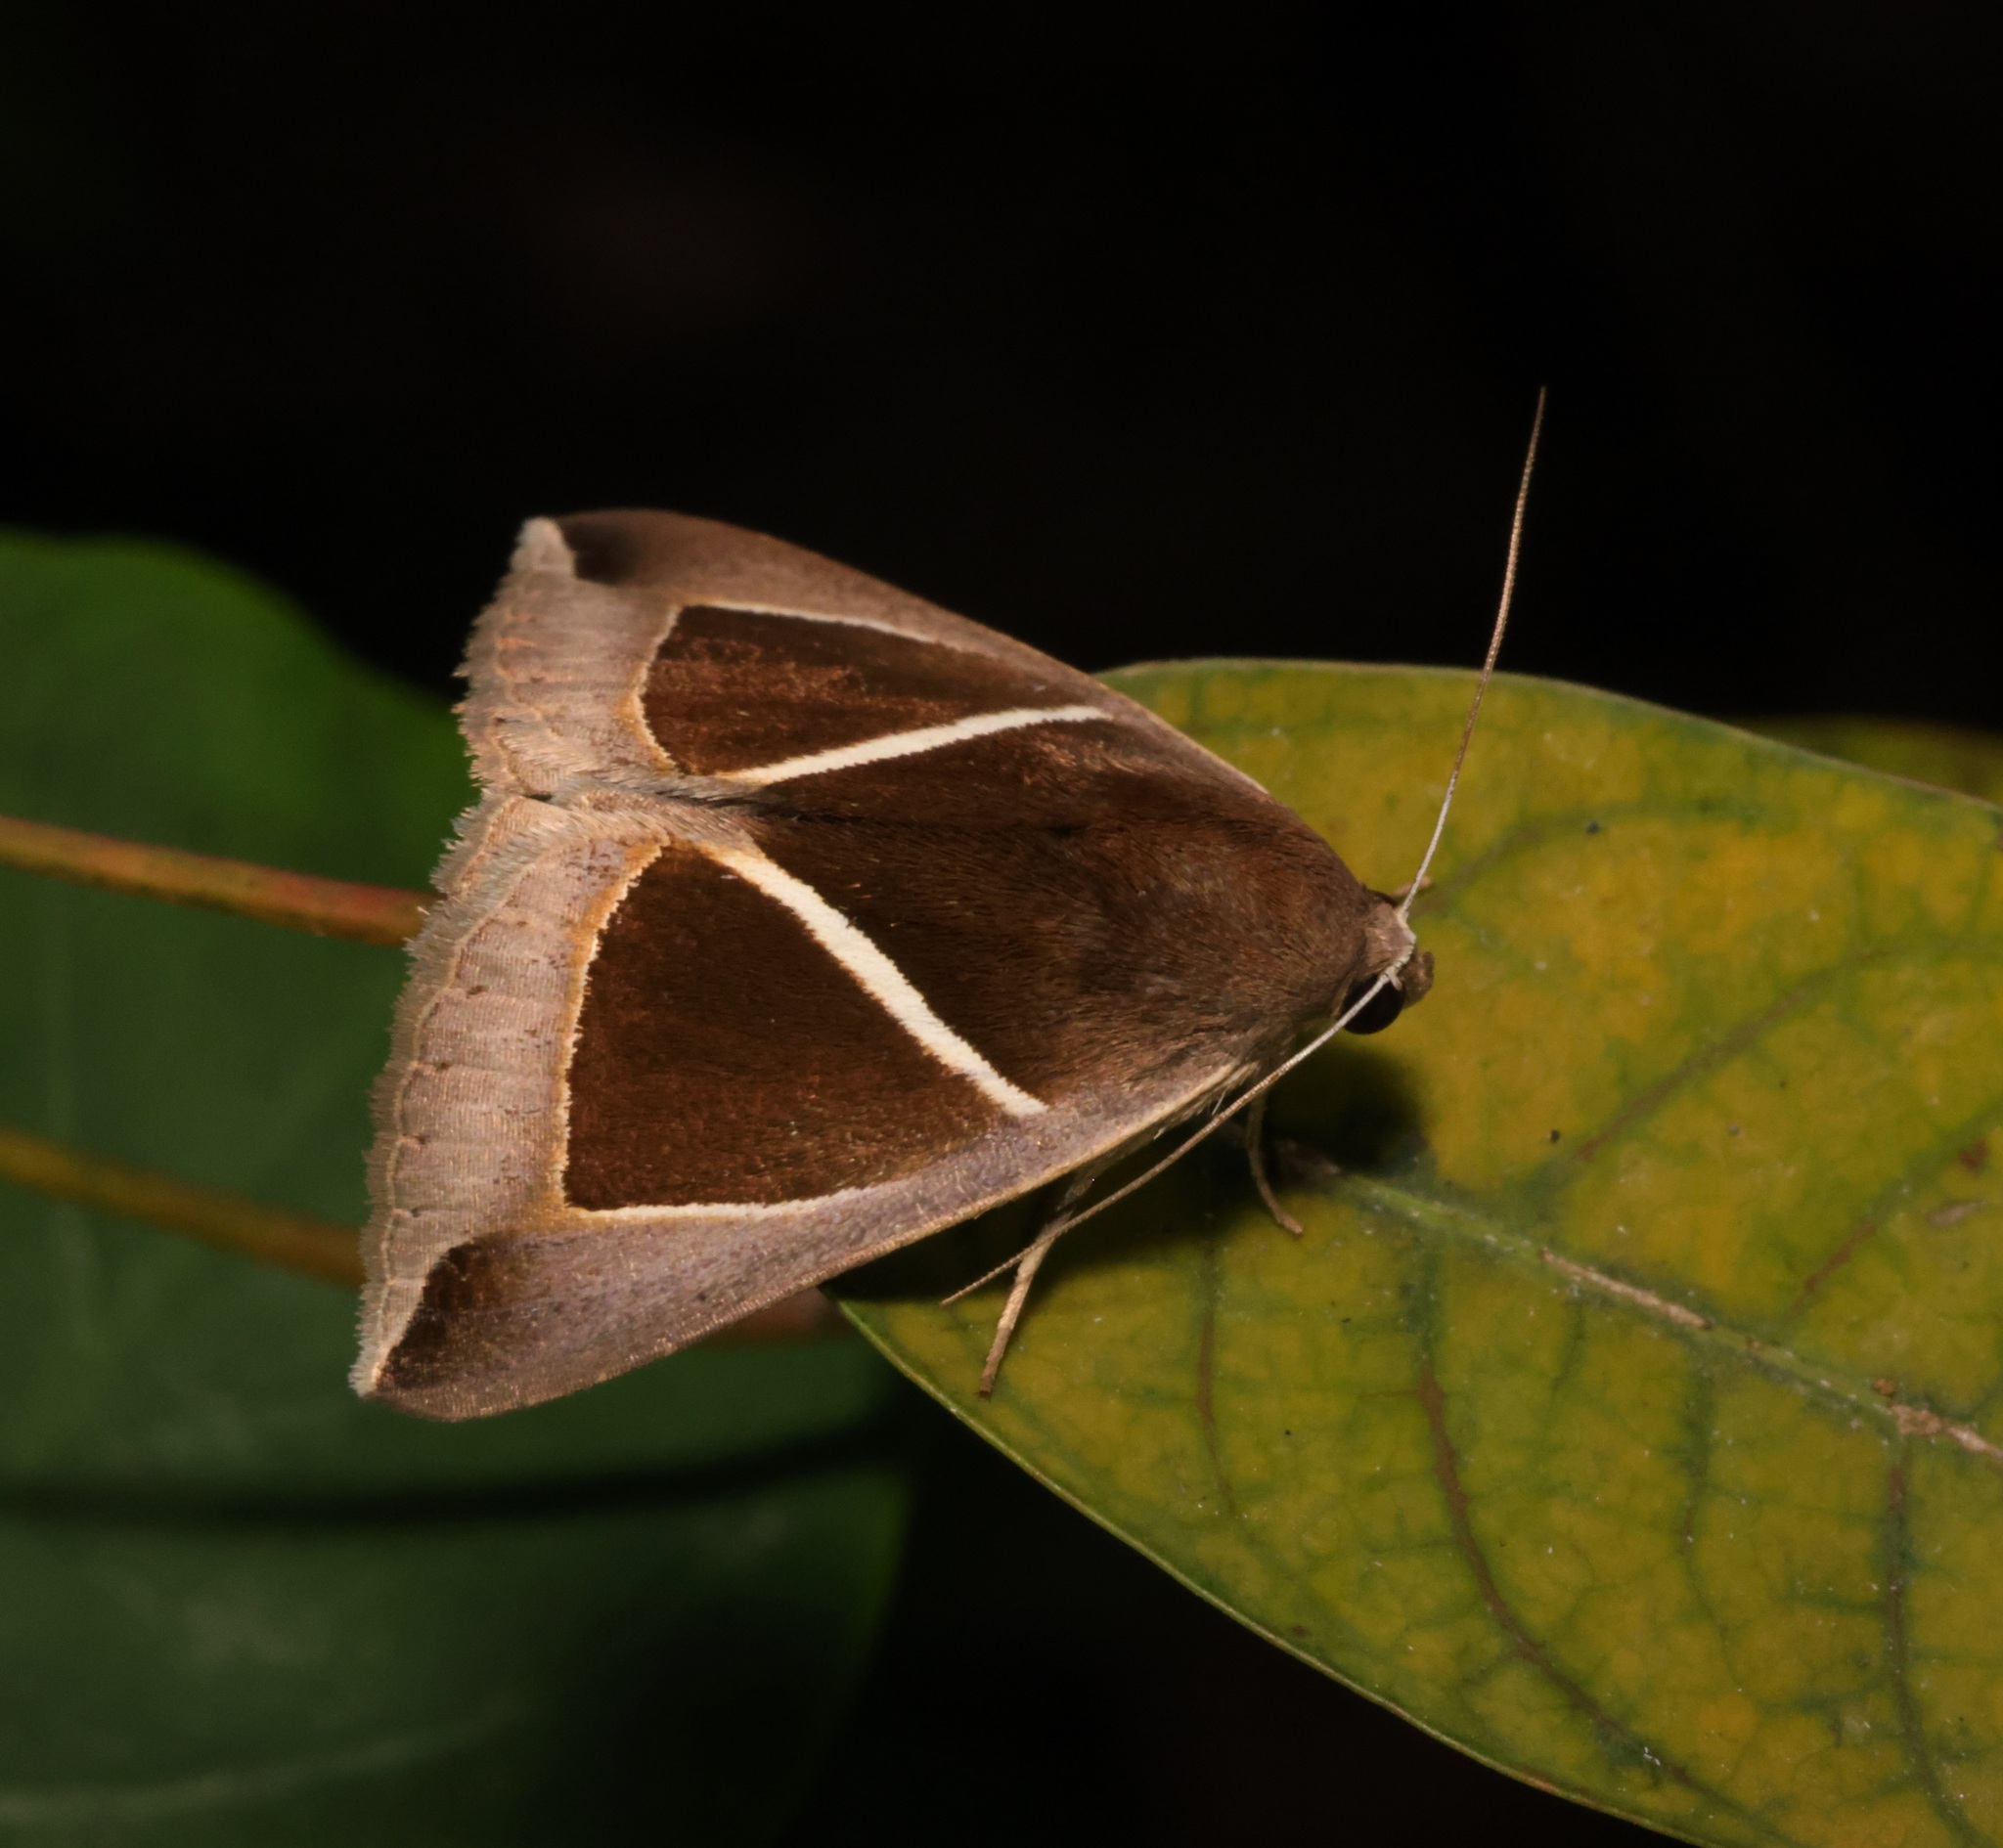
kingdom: Animalia
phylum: Arthropoda
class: Insecta
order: Lepidoptera
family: Erebidae
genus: Chalciope
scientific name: Chalciope mygdon
